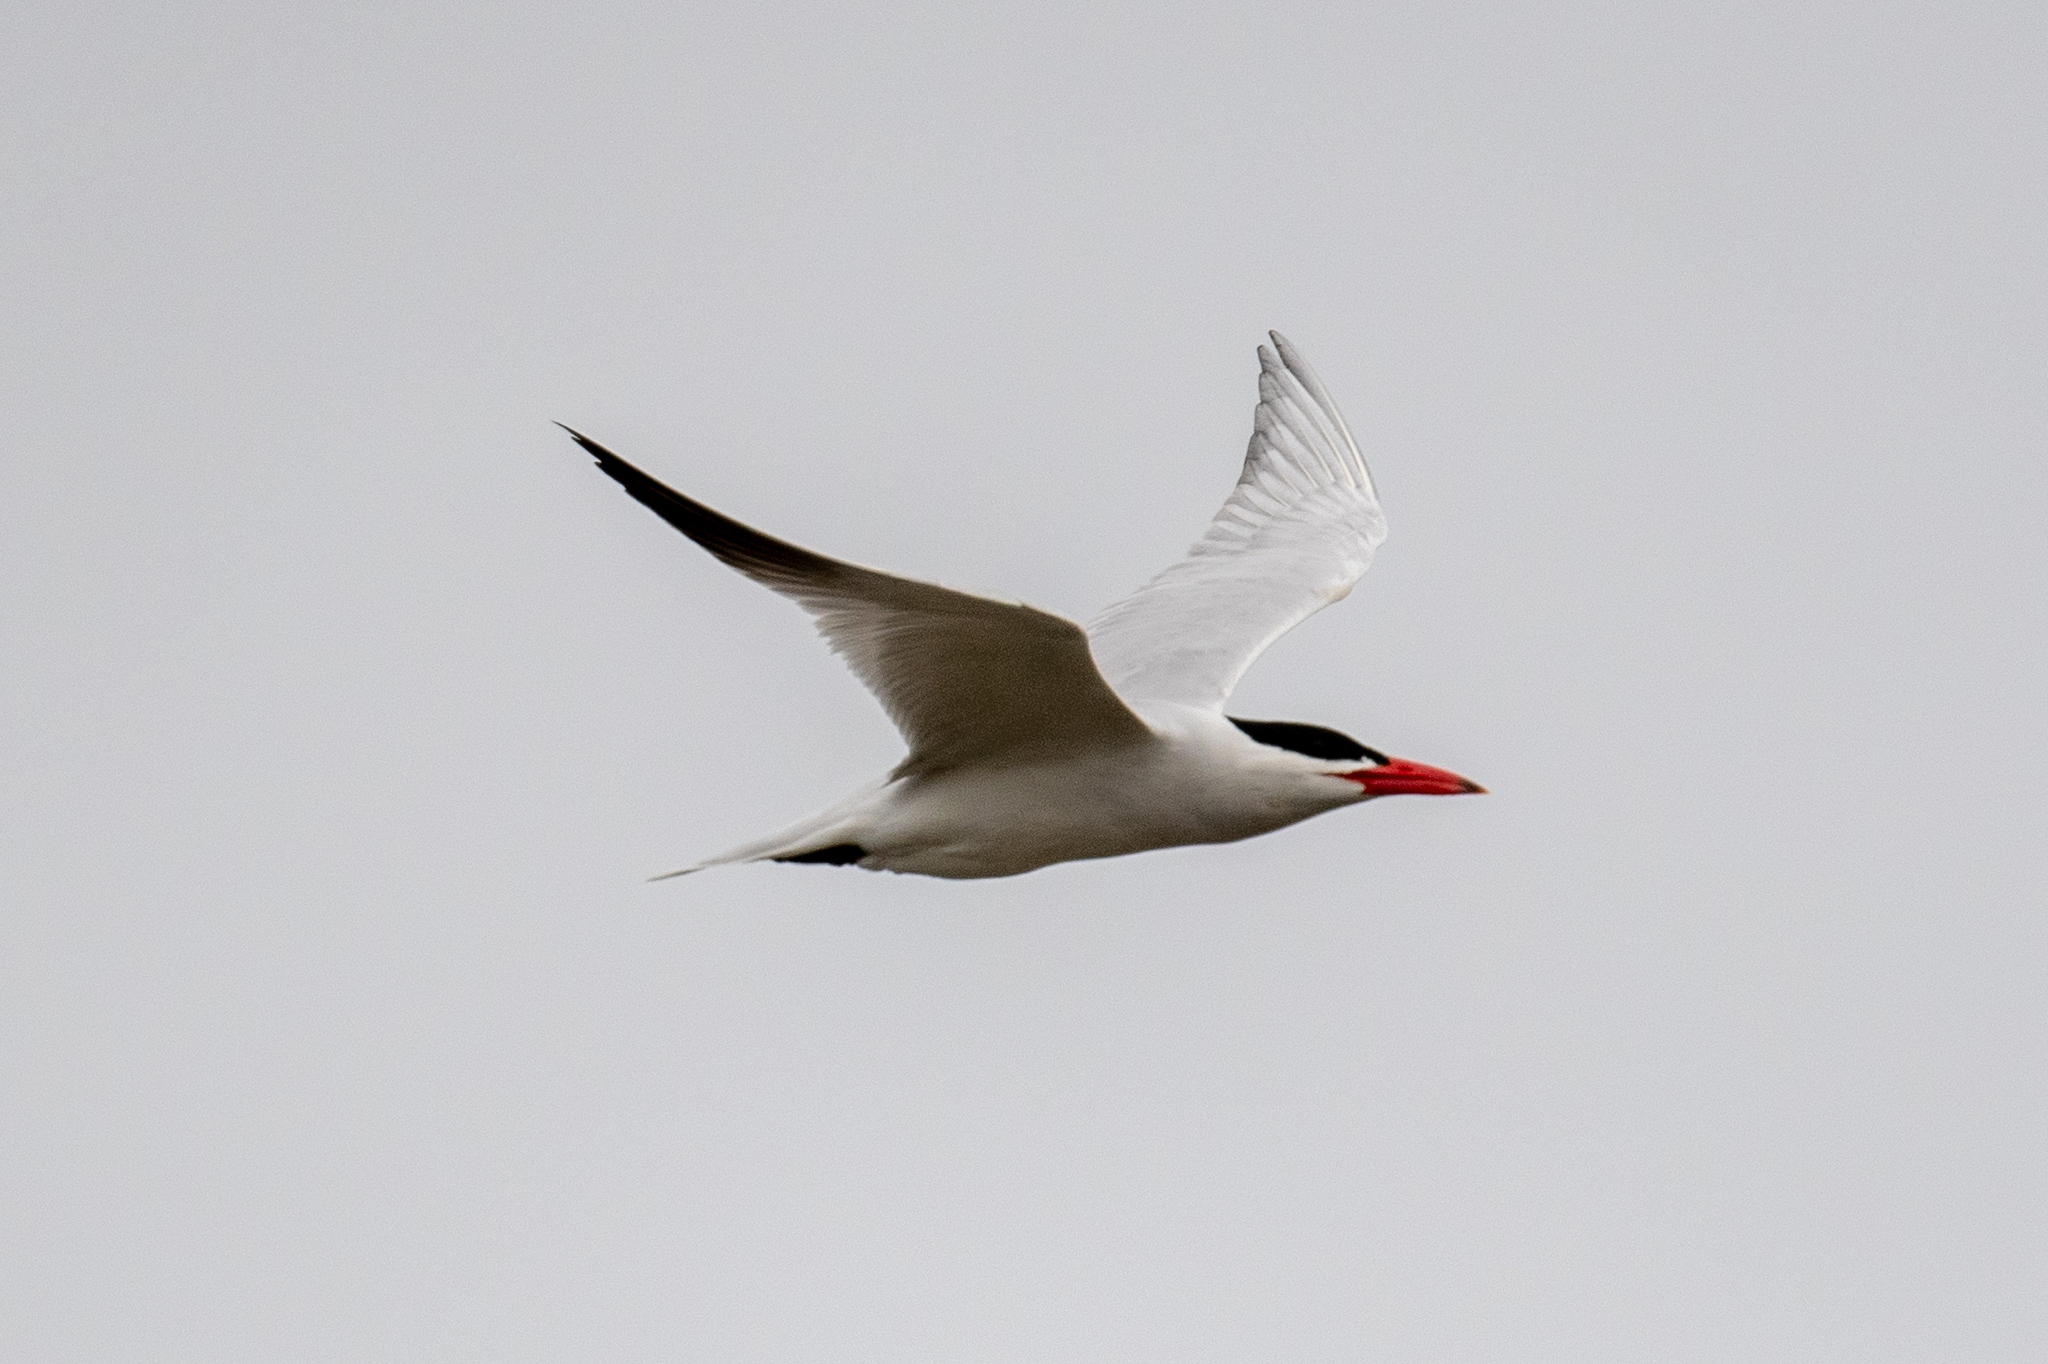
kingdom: Animalia
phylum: Chordata
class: Aves
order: Charadriiformes
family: Laridae
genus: Hydroprogne
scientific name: Hydroprogne caspia
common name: Caspian tern
